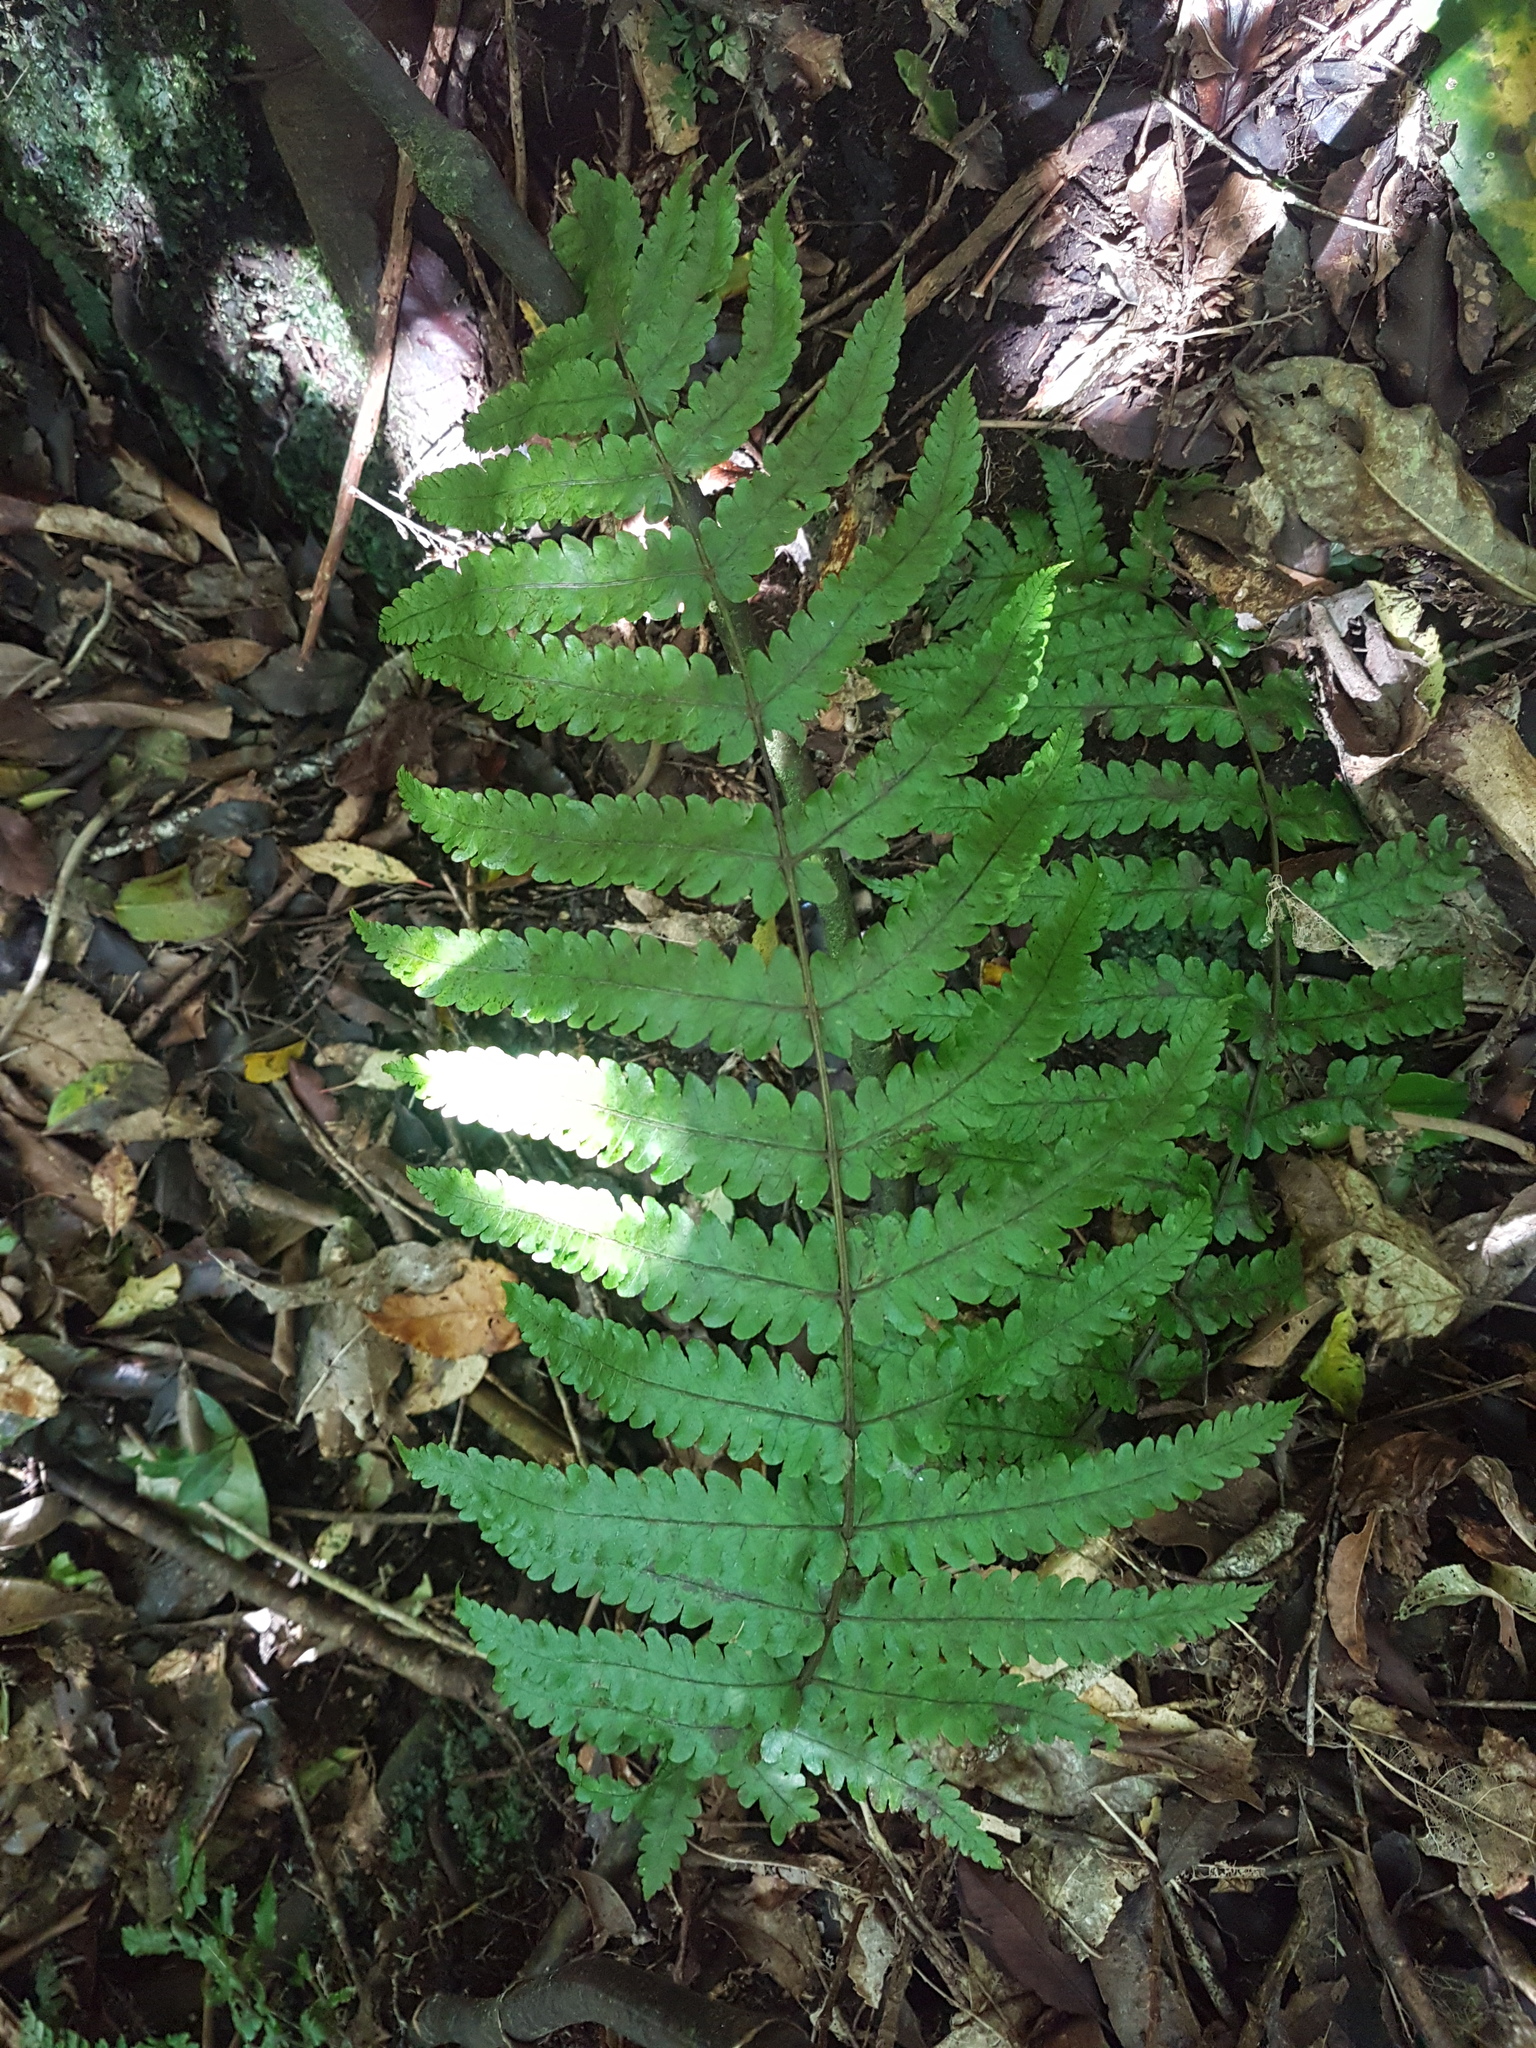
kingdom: Plantae
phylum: Tracheophyta
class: Polypodiopsida
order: Polypodiales
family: Thelypteridaceae
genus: Pakau
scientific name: Pakau pennigera
